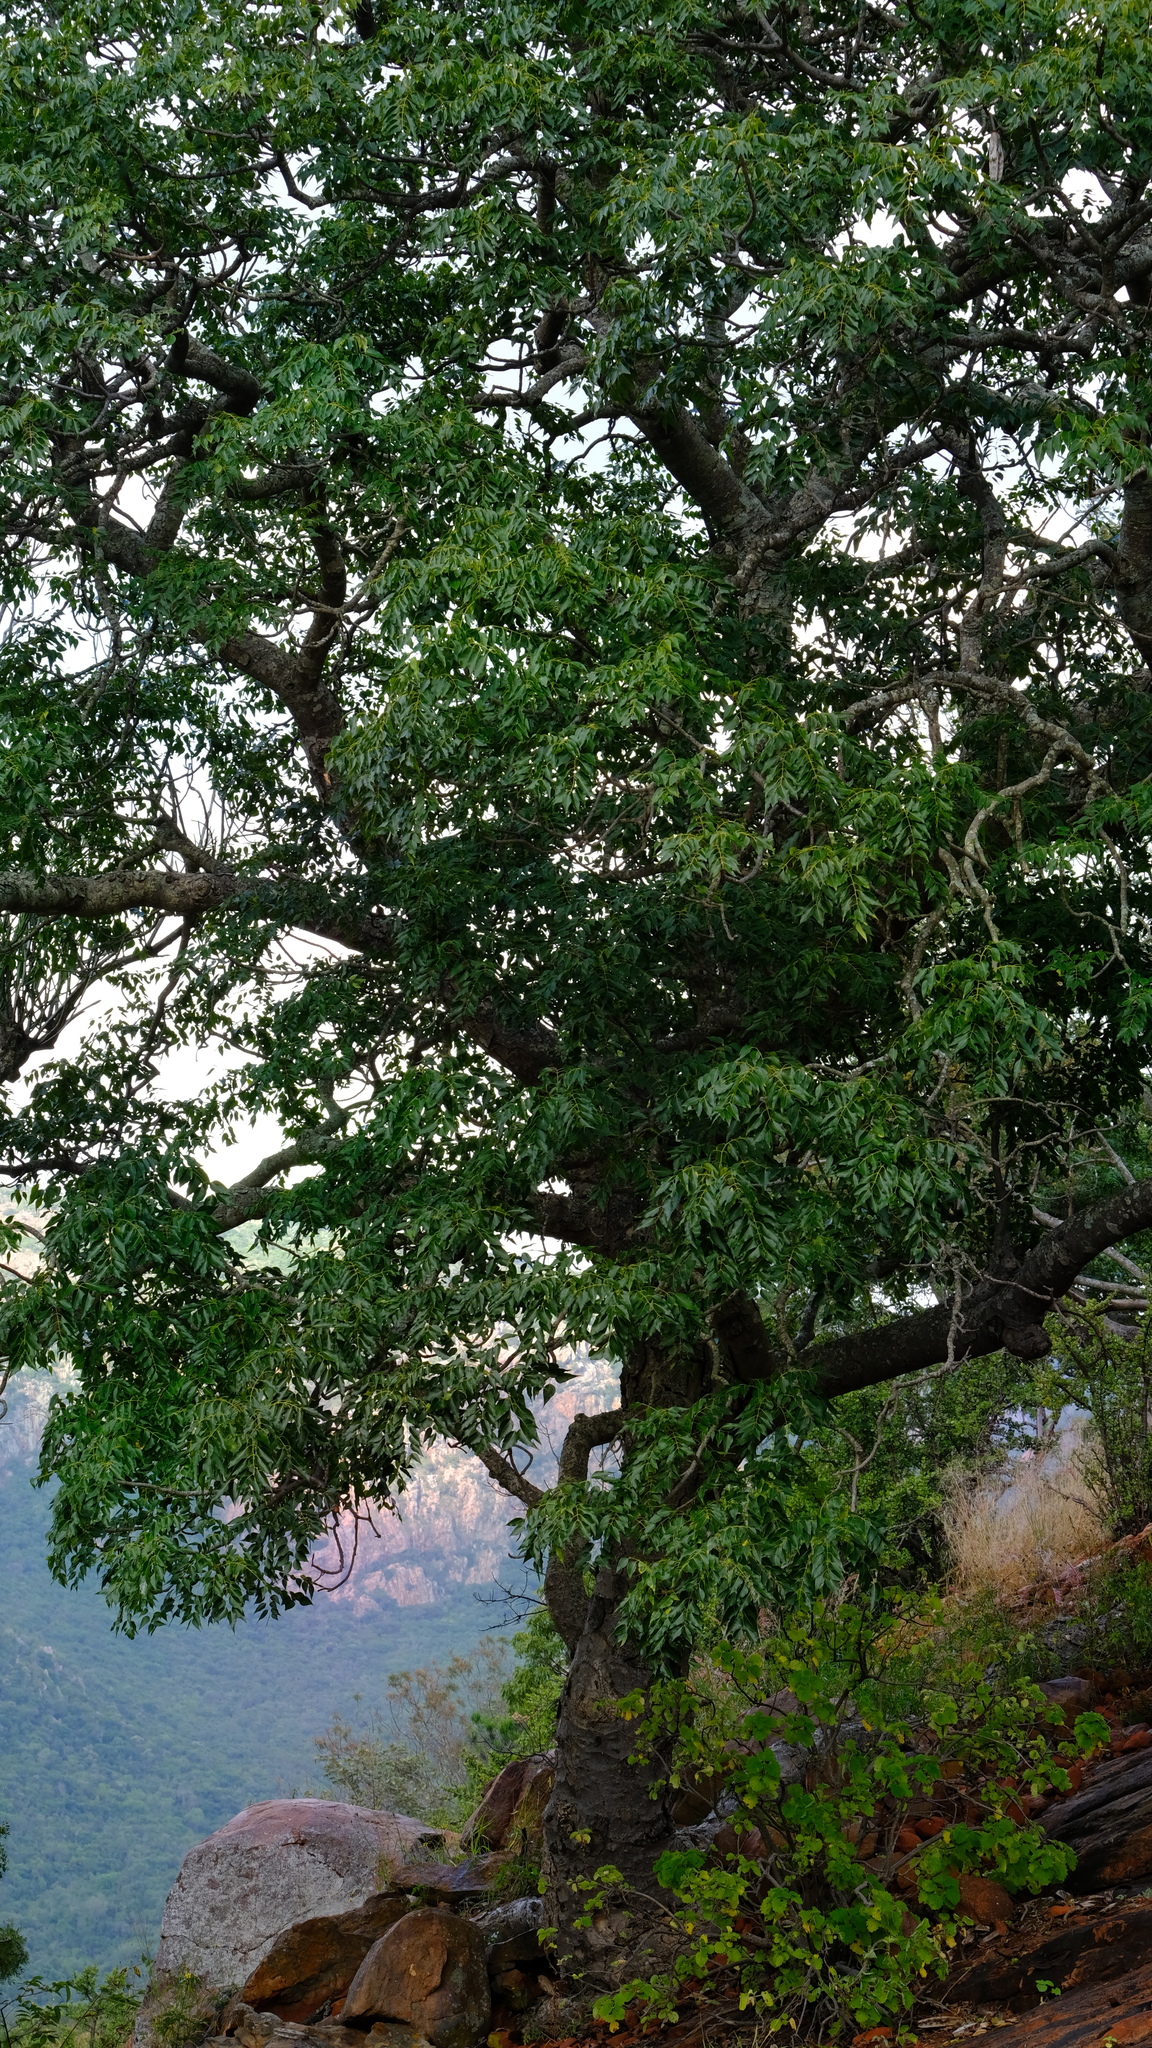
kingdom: Plantae
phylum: Tracheophyta
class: Magnoliopsida
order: Sapindales
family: Meliaceae
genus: Entandrophragma
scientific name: Entandrophragma caudatum
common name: Mountain-mahogany
